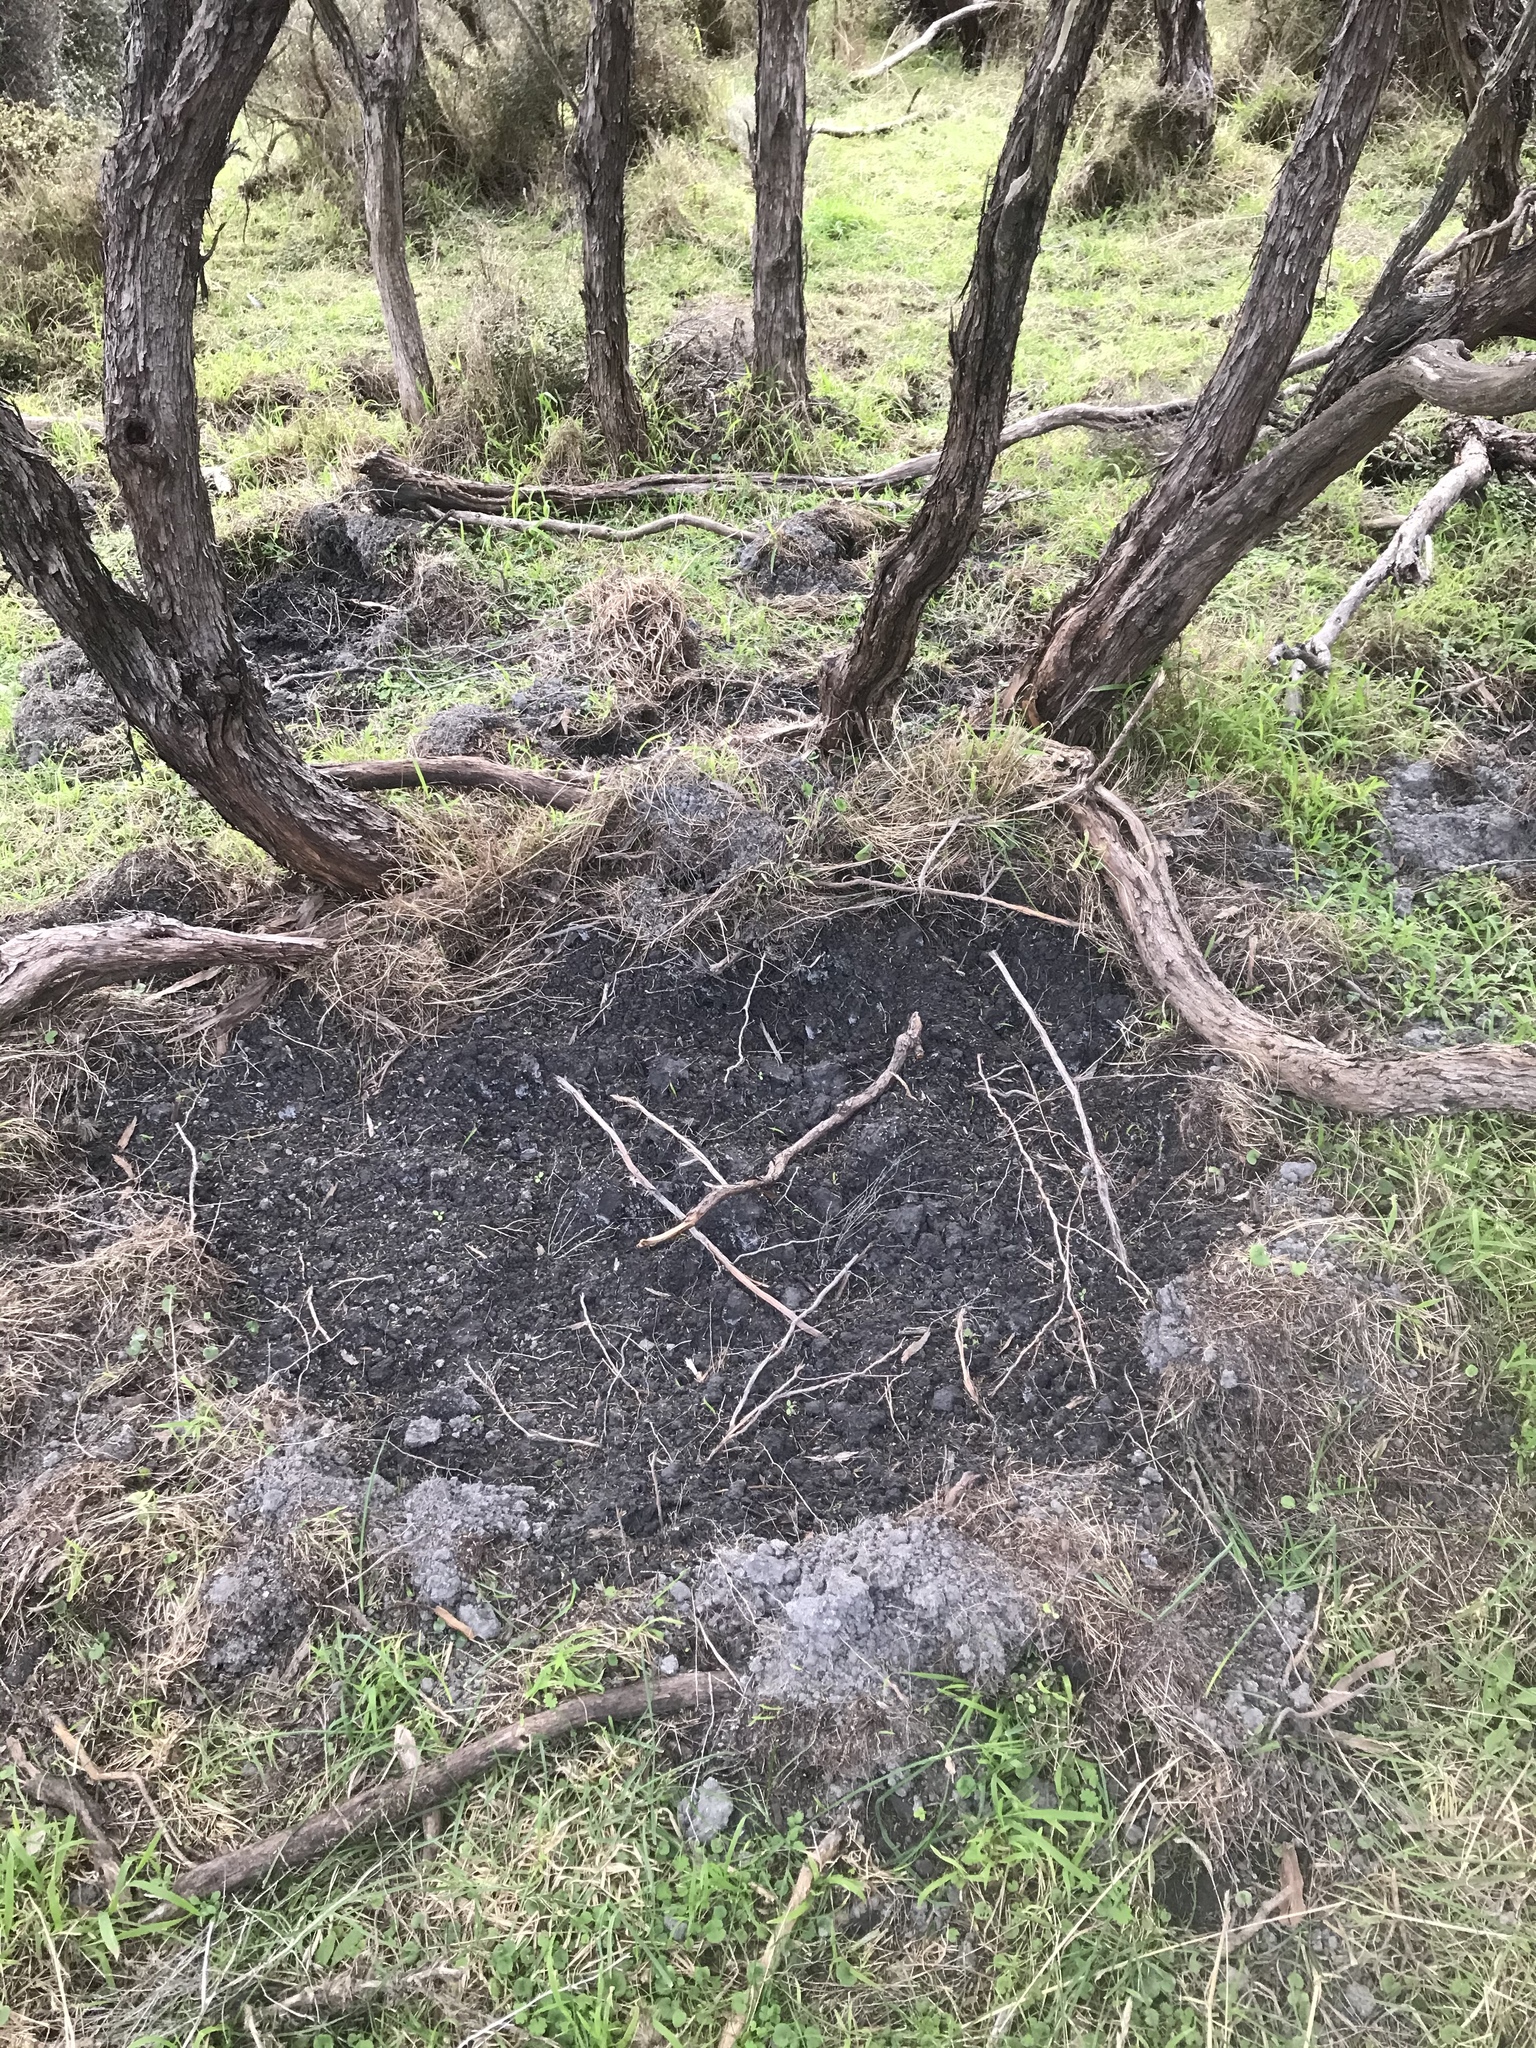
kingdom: Animalia
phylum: Chordata
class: Mammalia
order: Artiodactyla
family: Suidae
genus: Sus
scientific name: Sus scrofa
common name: Wild boar
